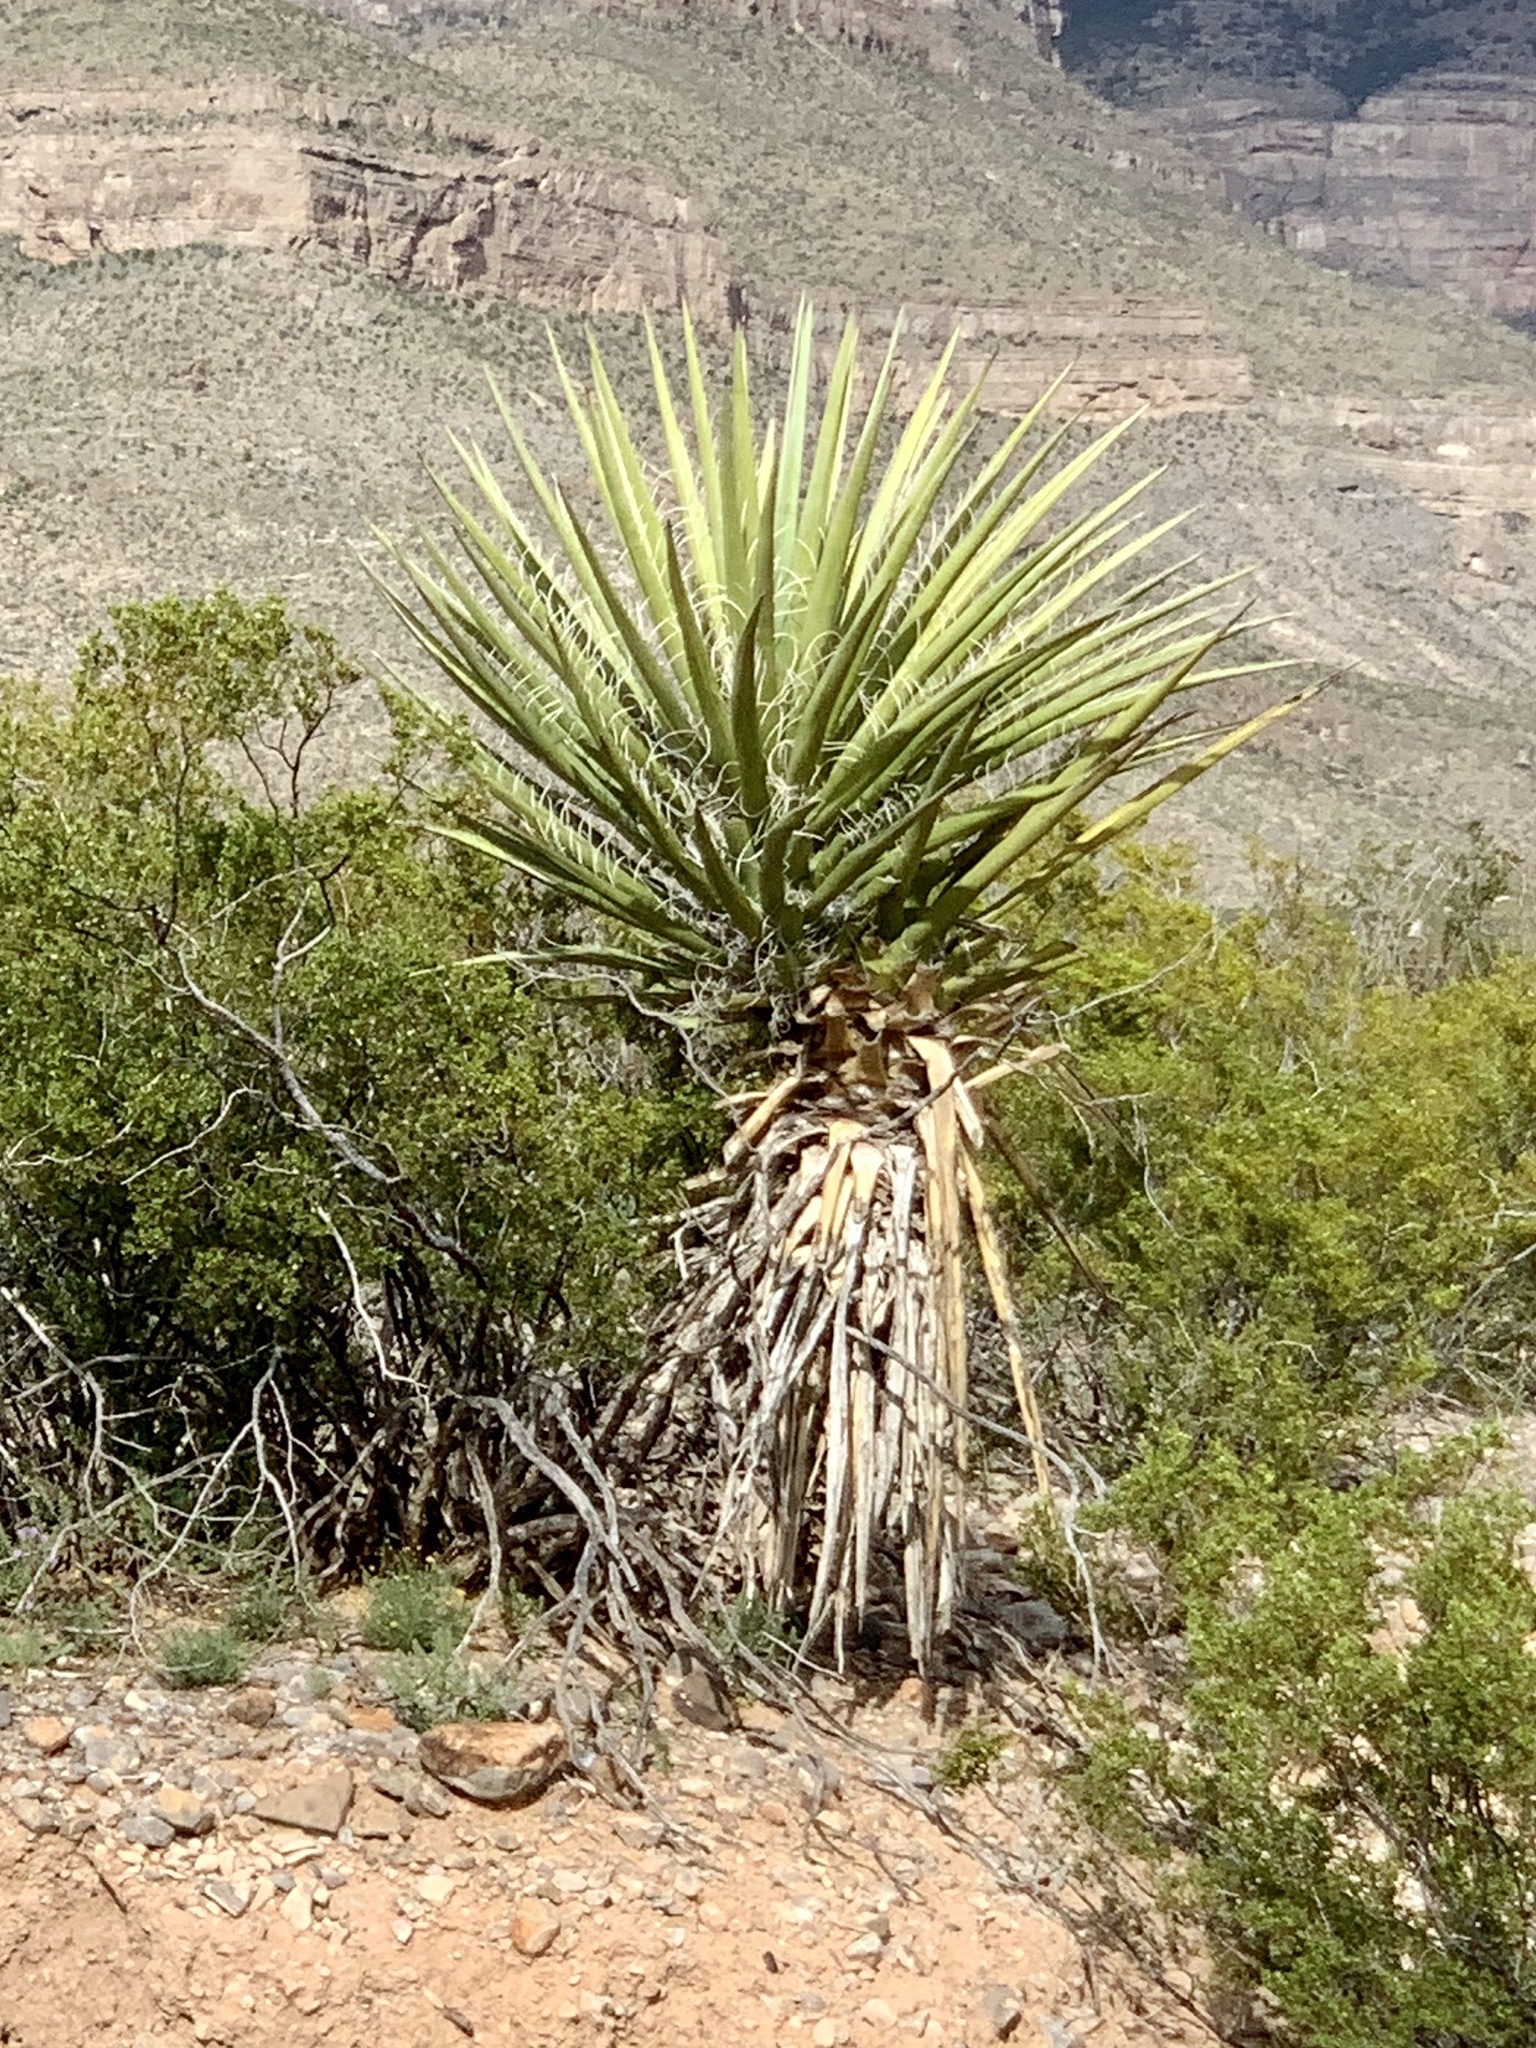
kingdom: Plantae
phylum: Tracheophyta
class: Liliopsida
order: Asparagales
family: Asparagaceae
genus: Yucca
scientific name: Yucca treculiana
